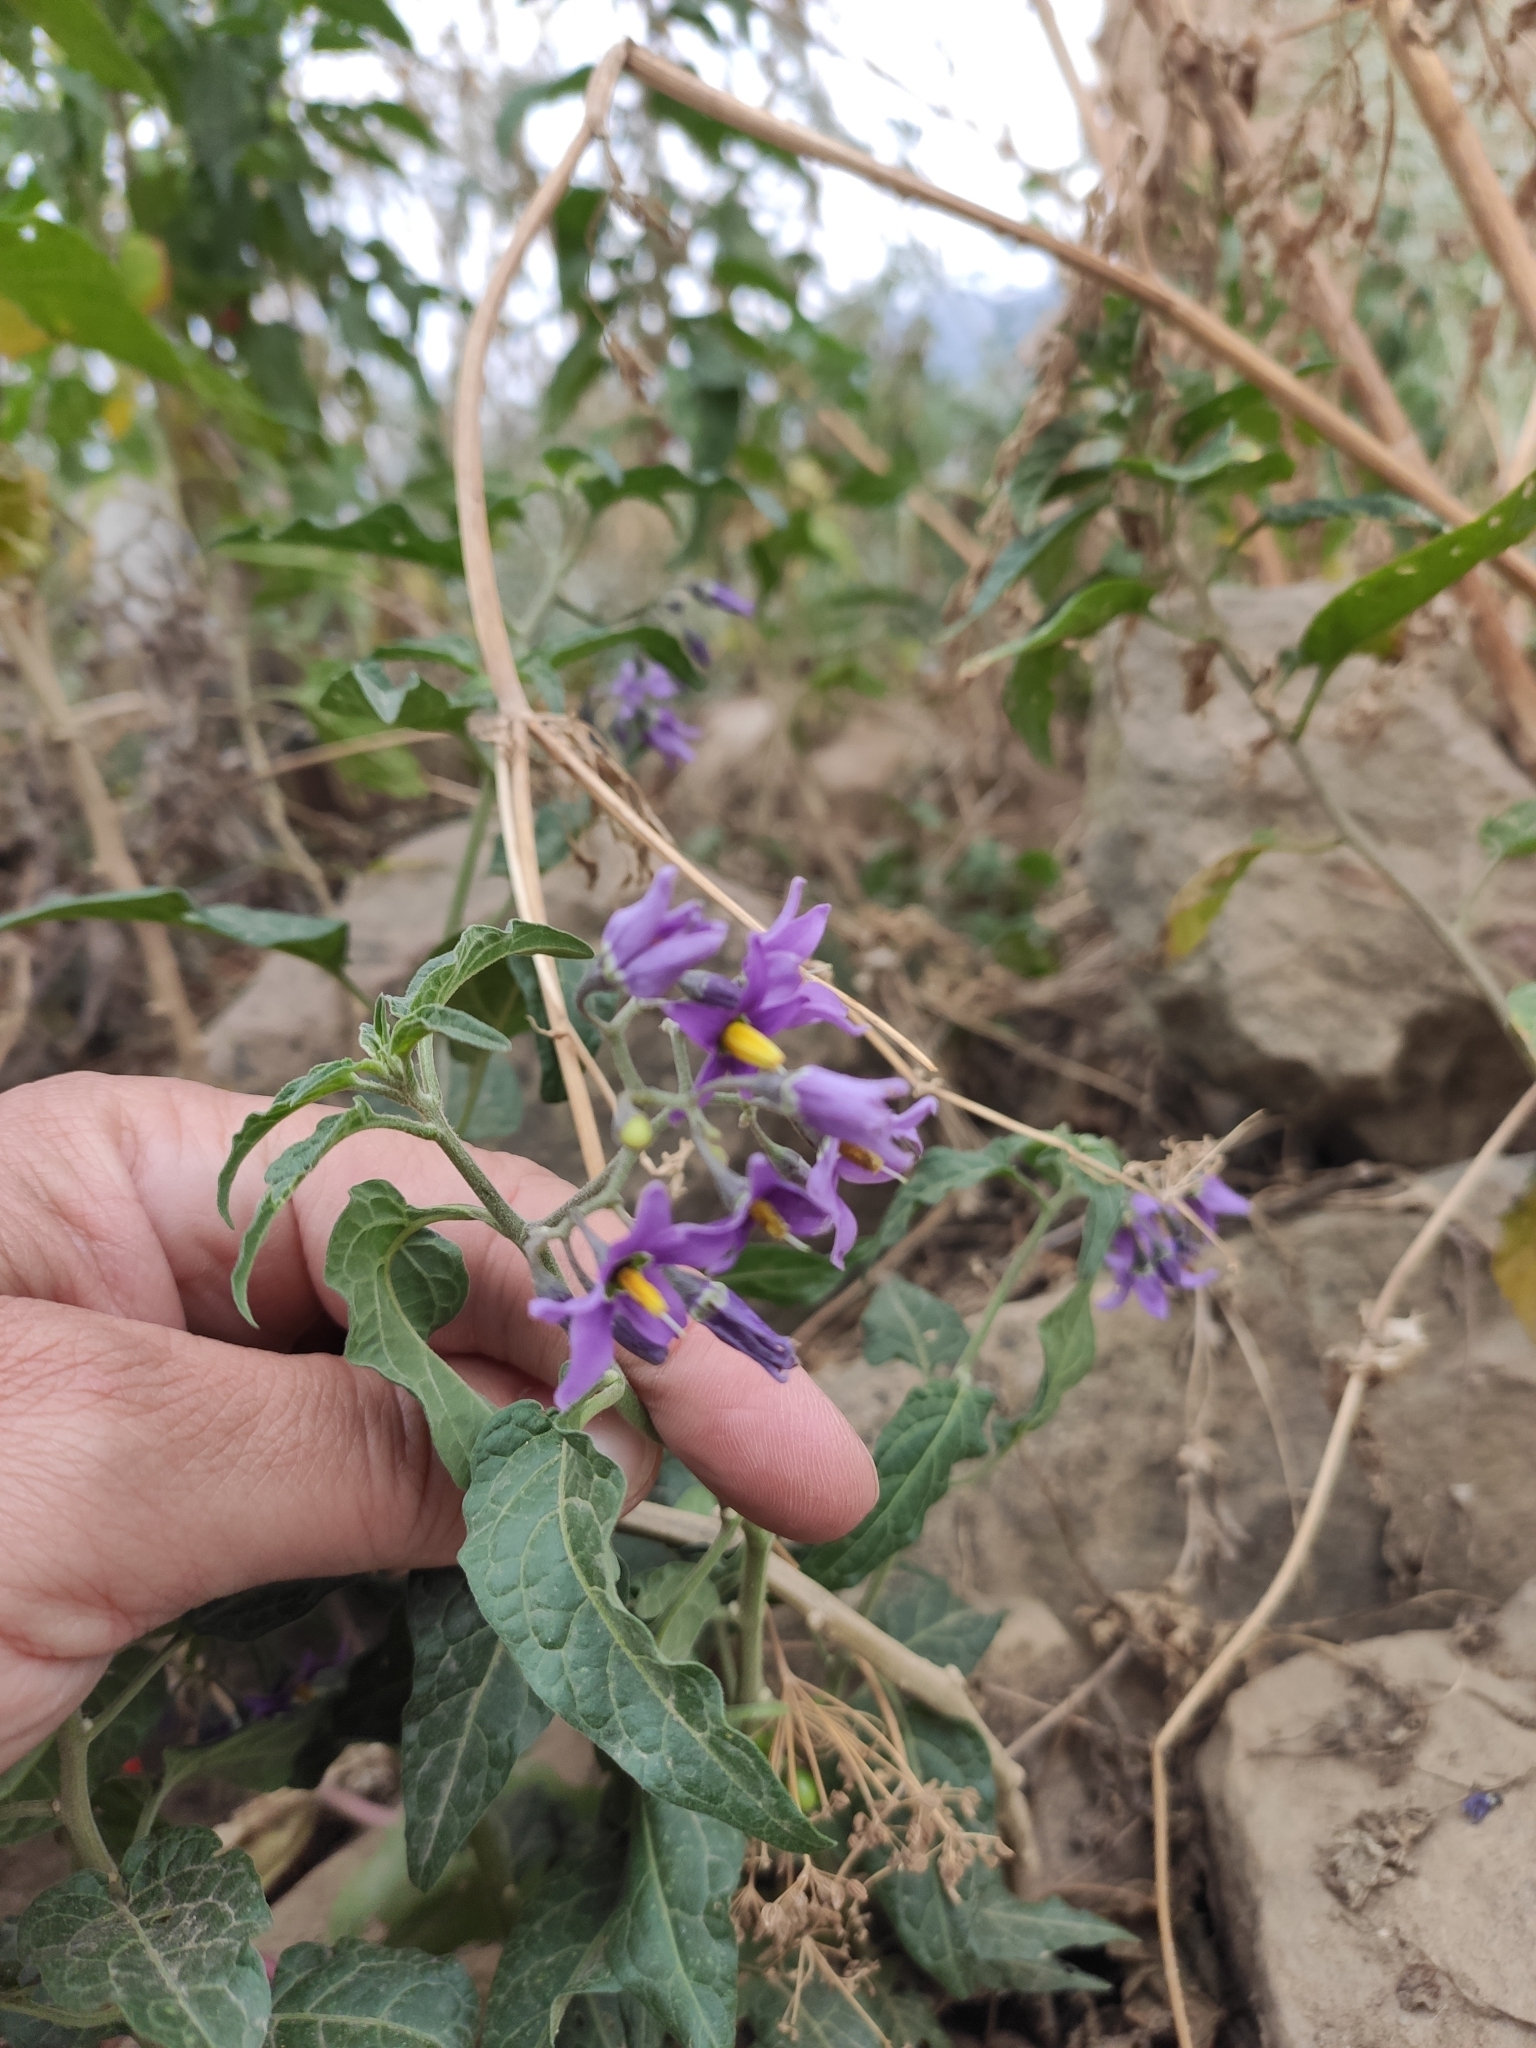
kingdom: Plantae
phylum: Tracheophyta
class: Magnoliopsida
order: Solanales
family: Solanaceae
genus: Solanum
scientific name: Solanum dulcamara
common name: Climbing nightshade
